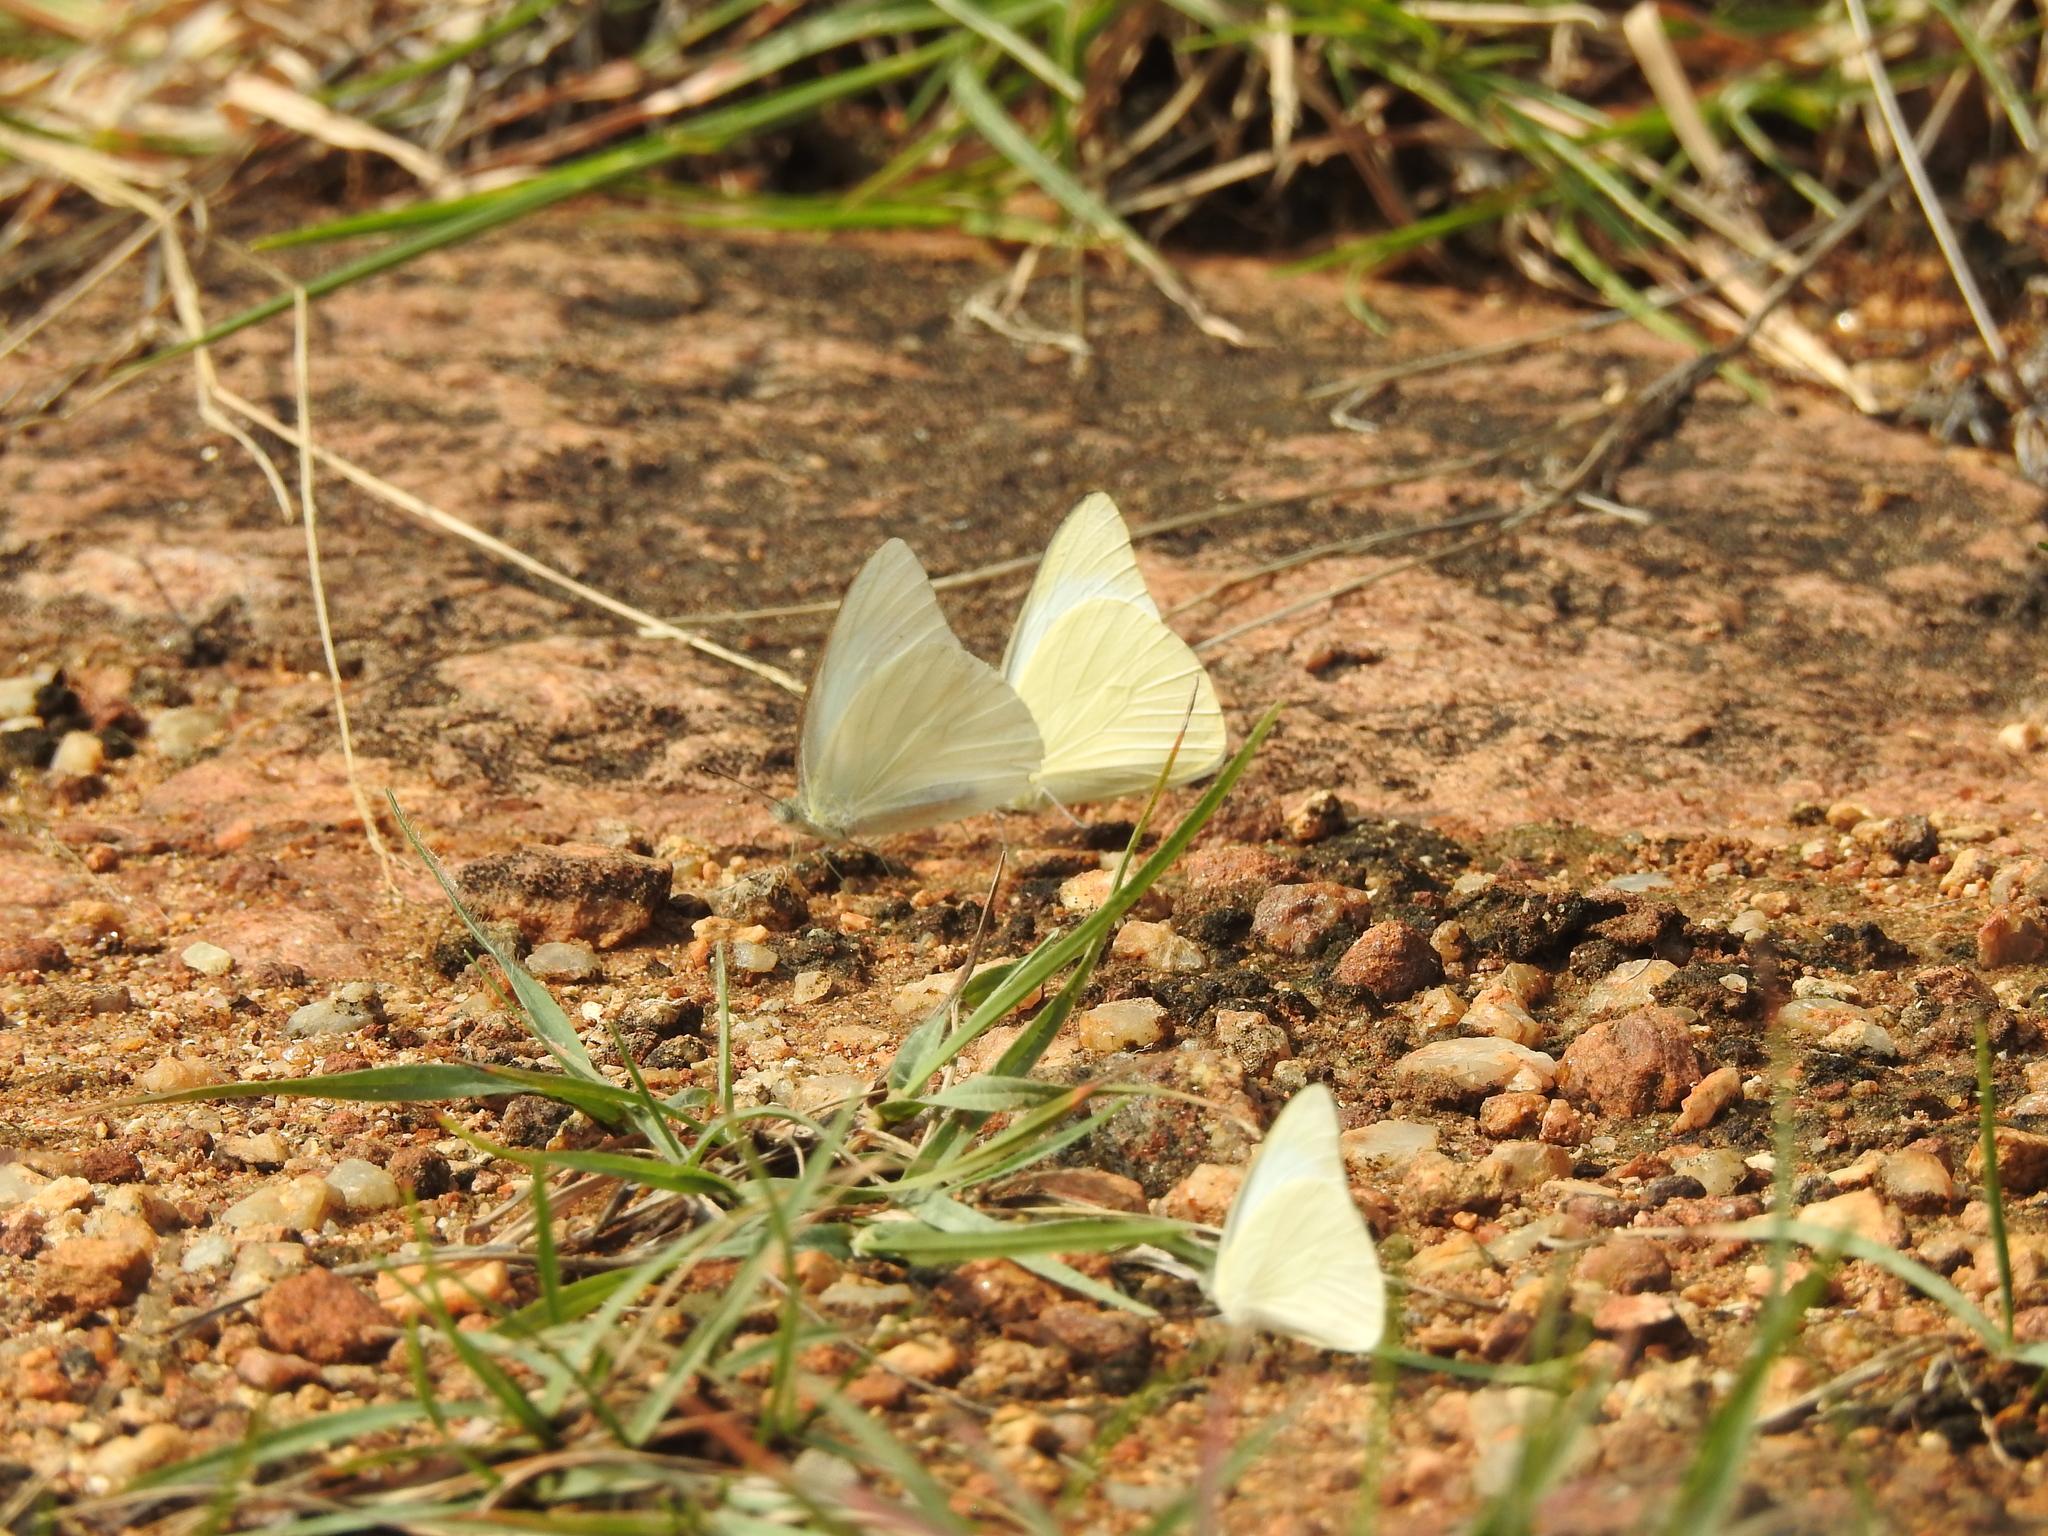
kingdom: Animalia
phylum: Arthropoda
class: Insecta
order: Lepidoptera
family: Pieridae
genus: Appias
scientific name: Appias albina
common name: Common albatross
